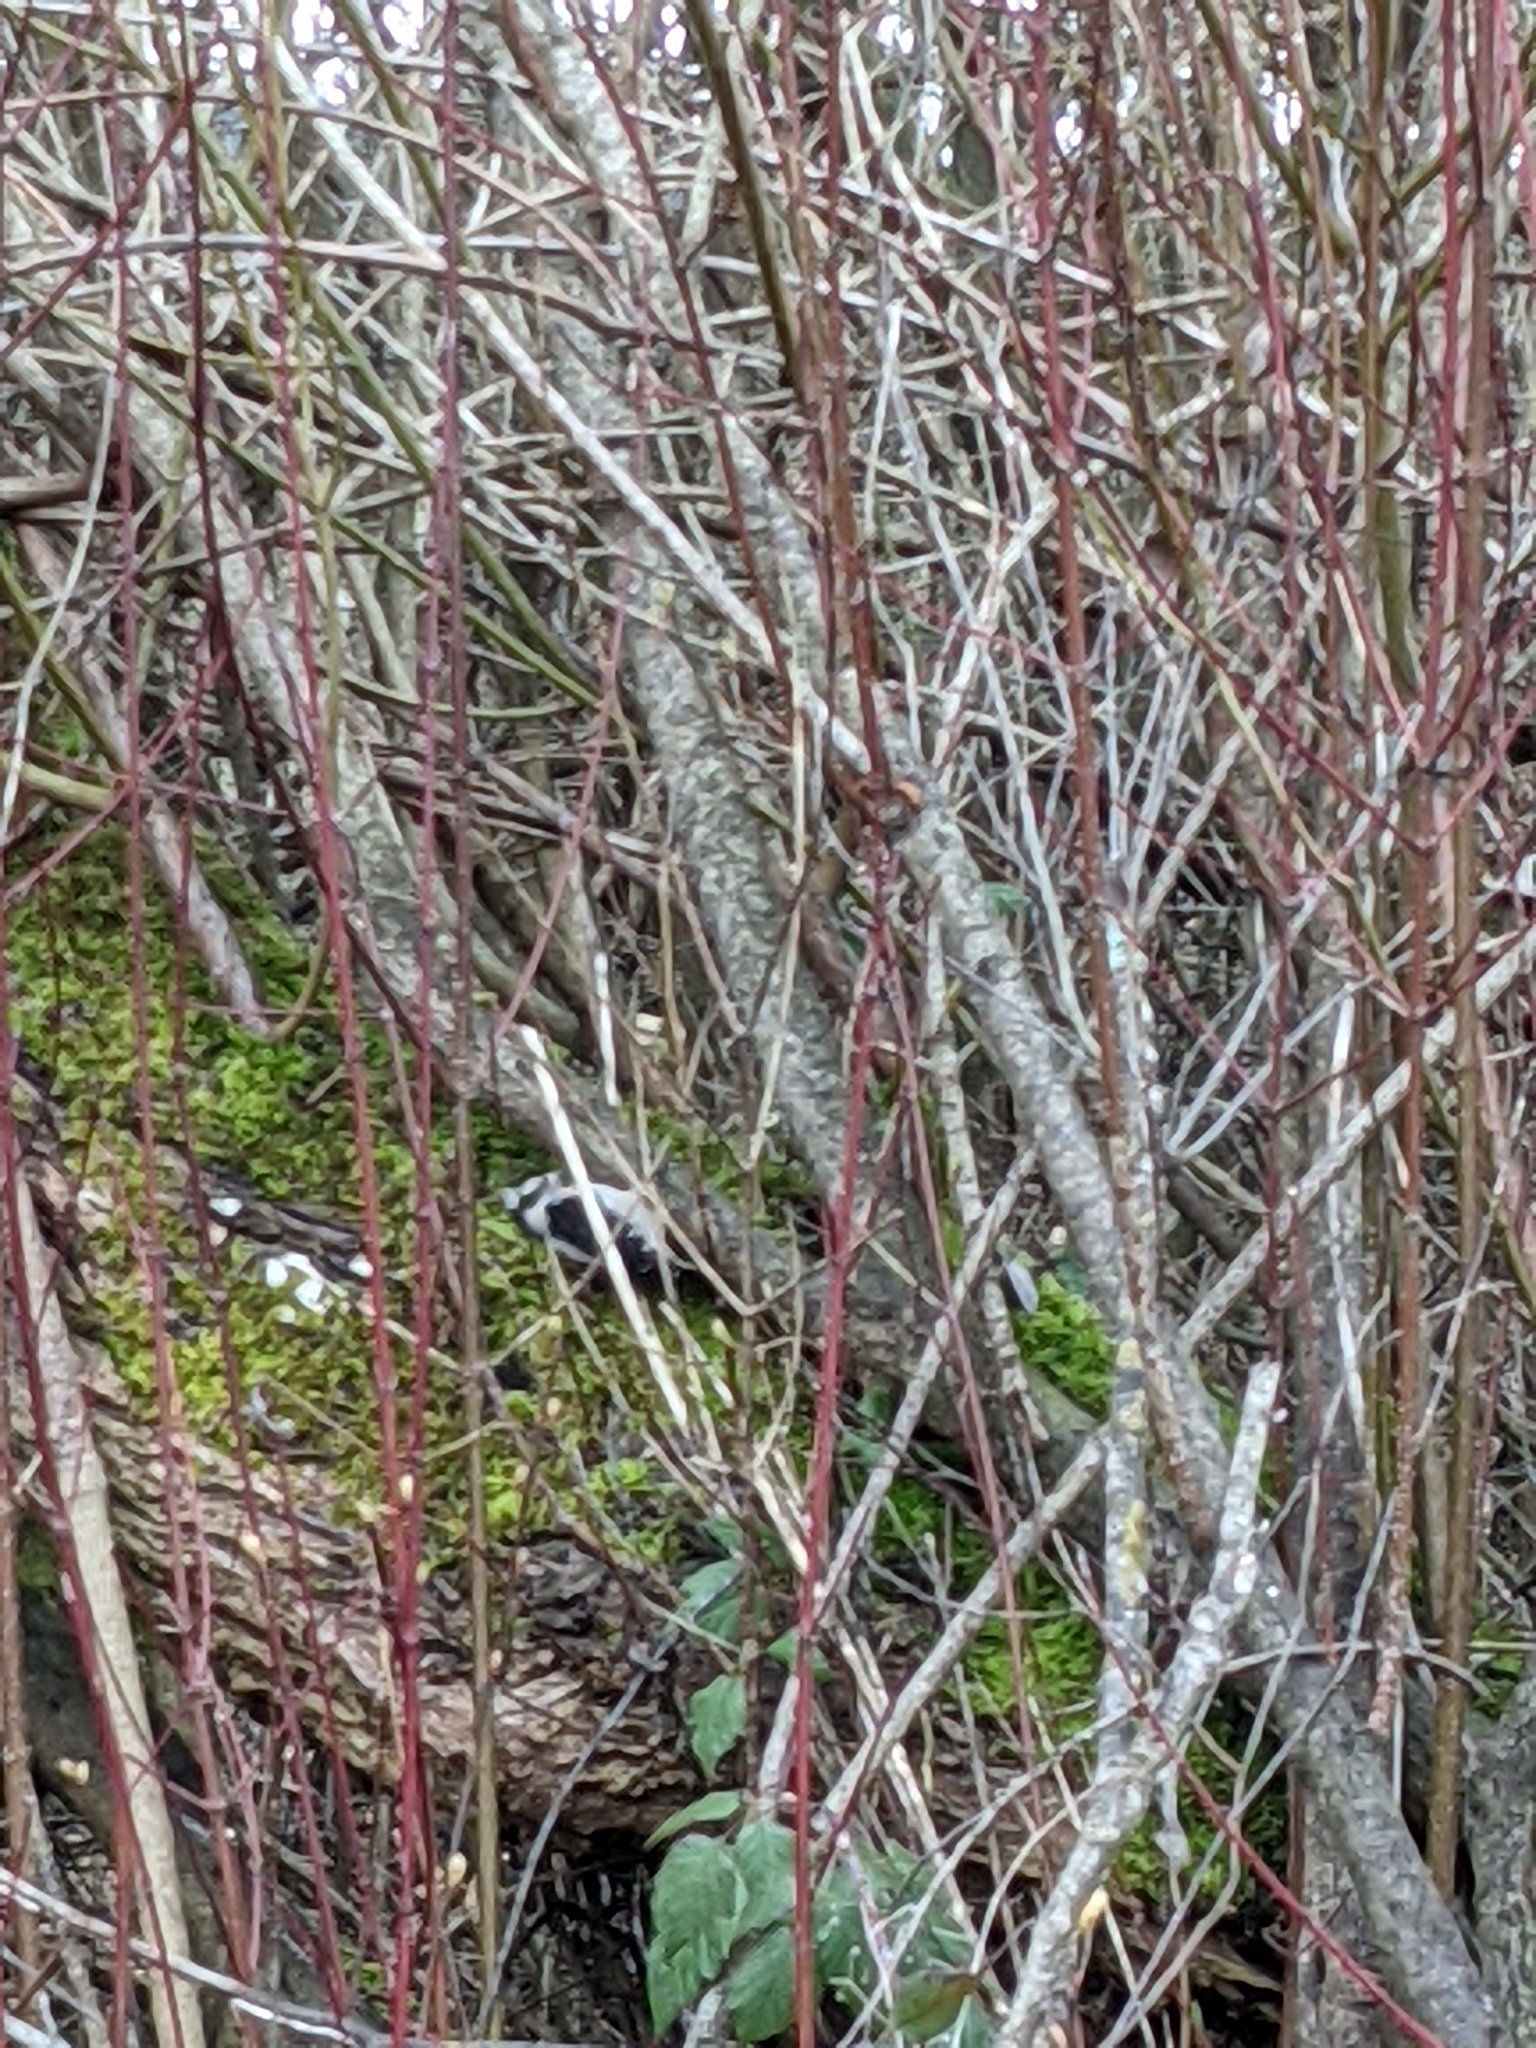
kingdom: Animalia
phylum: Chordata
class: Aves
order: Piciformes
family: Picidae
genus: Dryobates
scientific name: Dryobates pubescens
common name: Downy woodpecker
